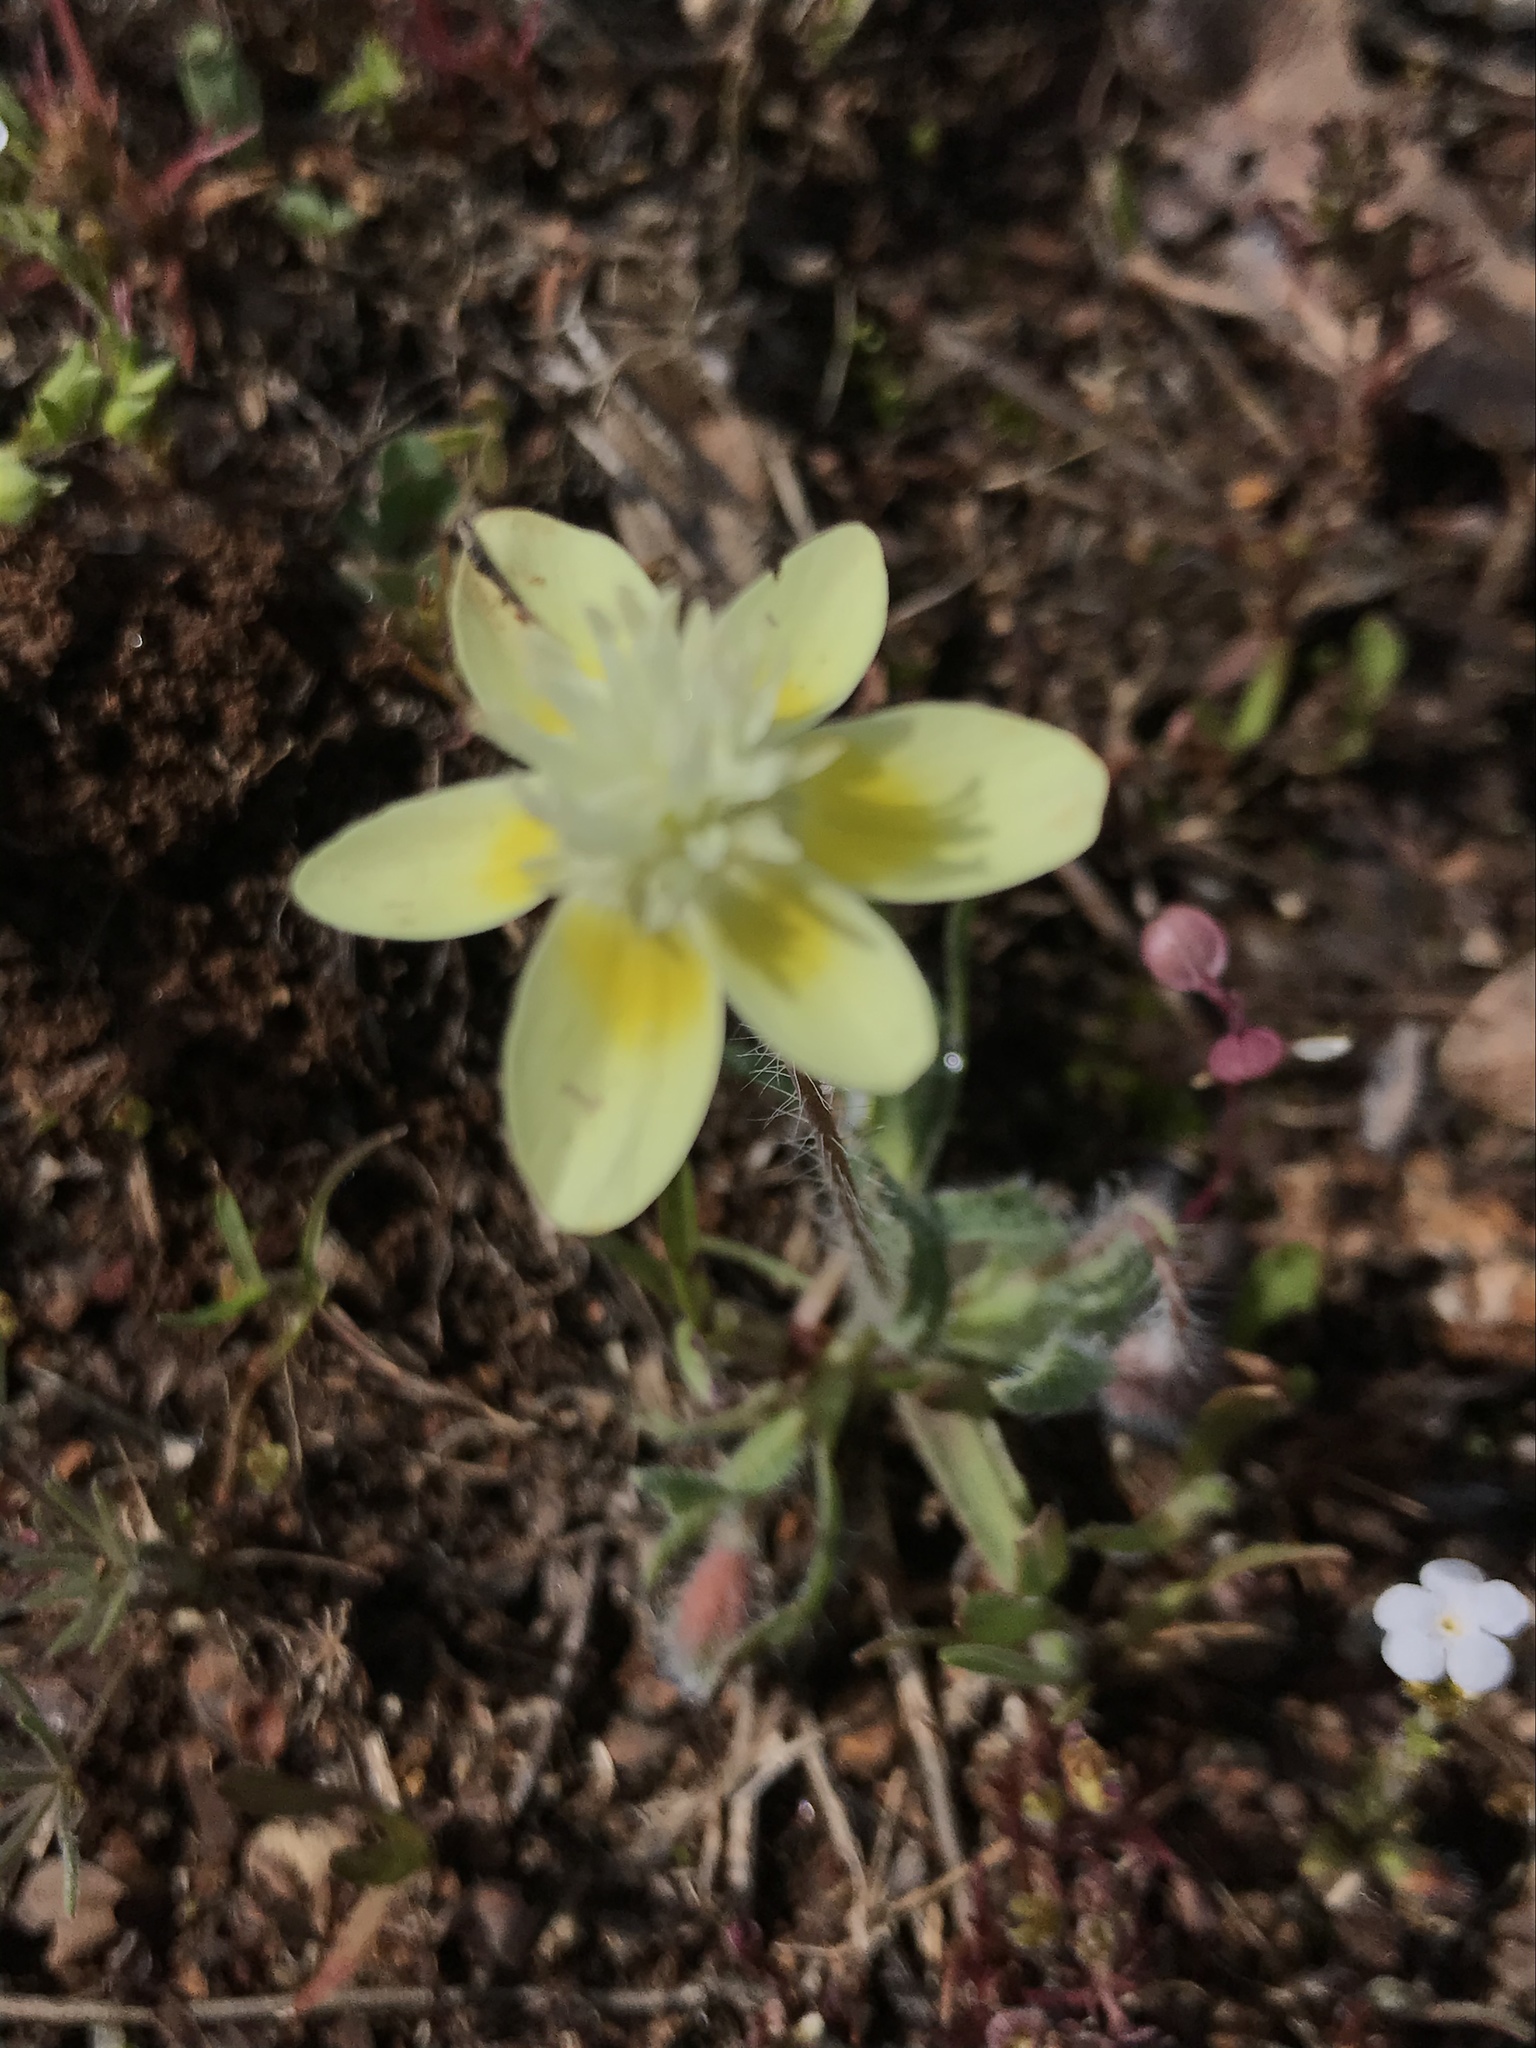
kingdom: Plantae
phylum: Tracheophyta
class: Magnoliopsida
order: Ranunculales
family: Papaveraceae
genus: Platystemon
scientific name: Platystemon californicus
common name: Cream-cups
